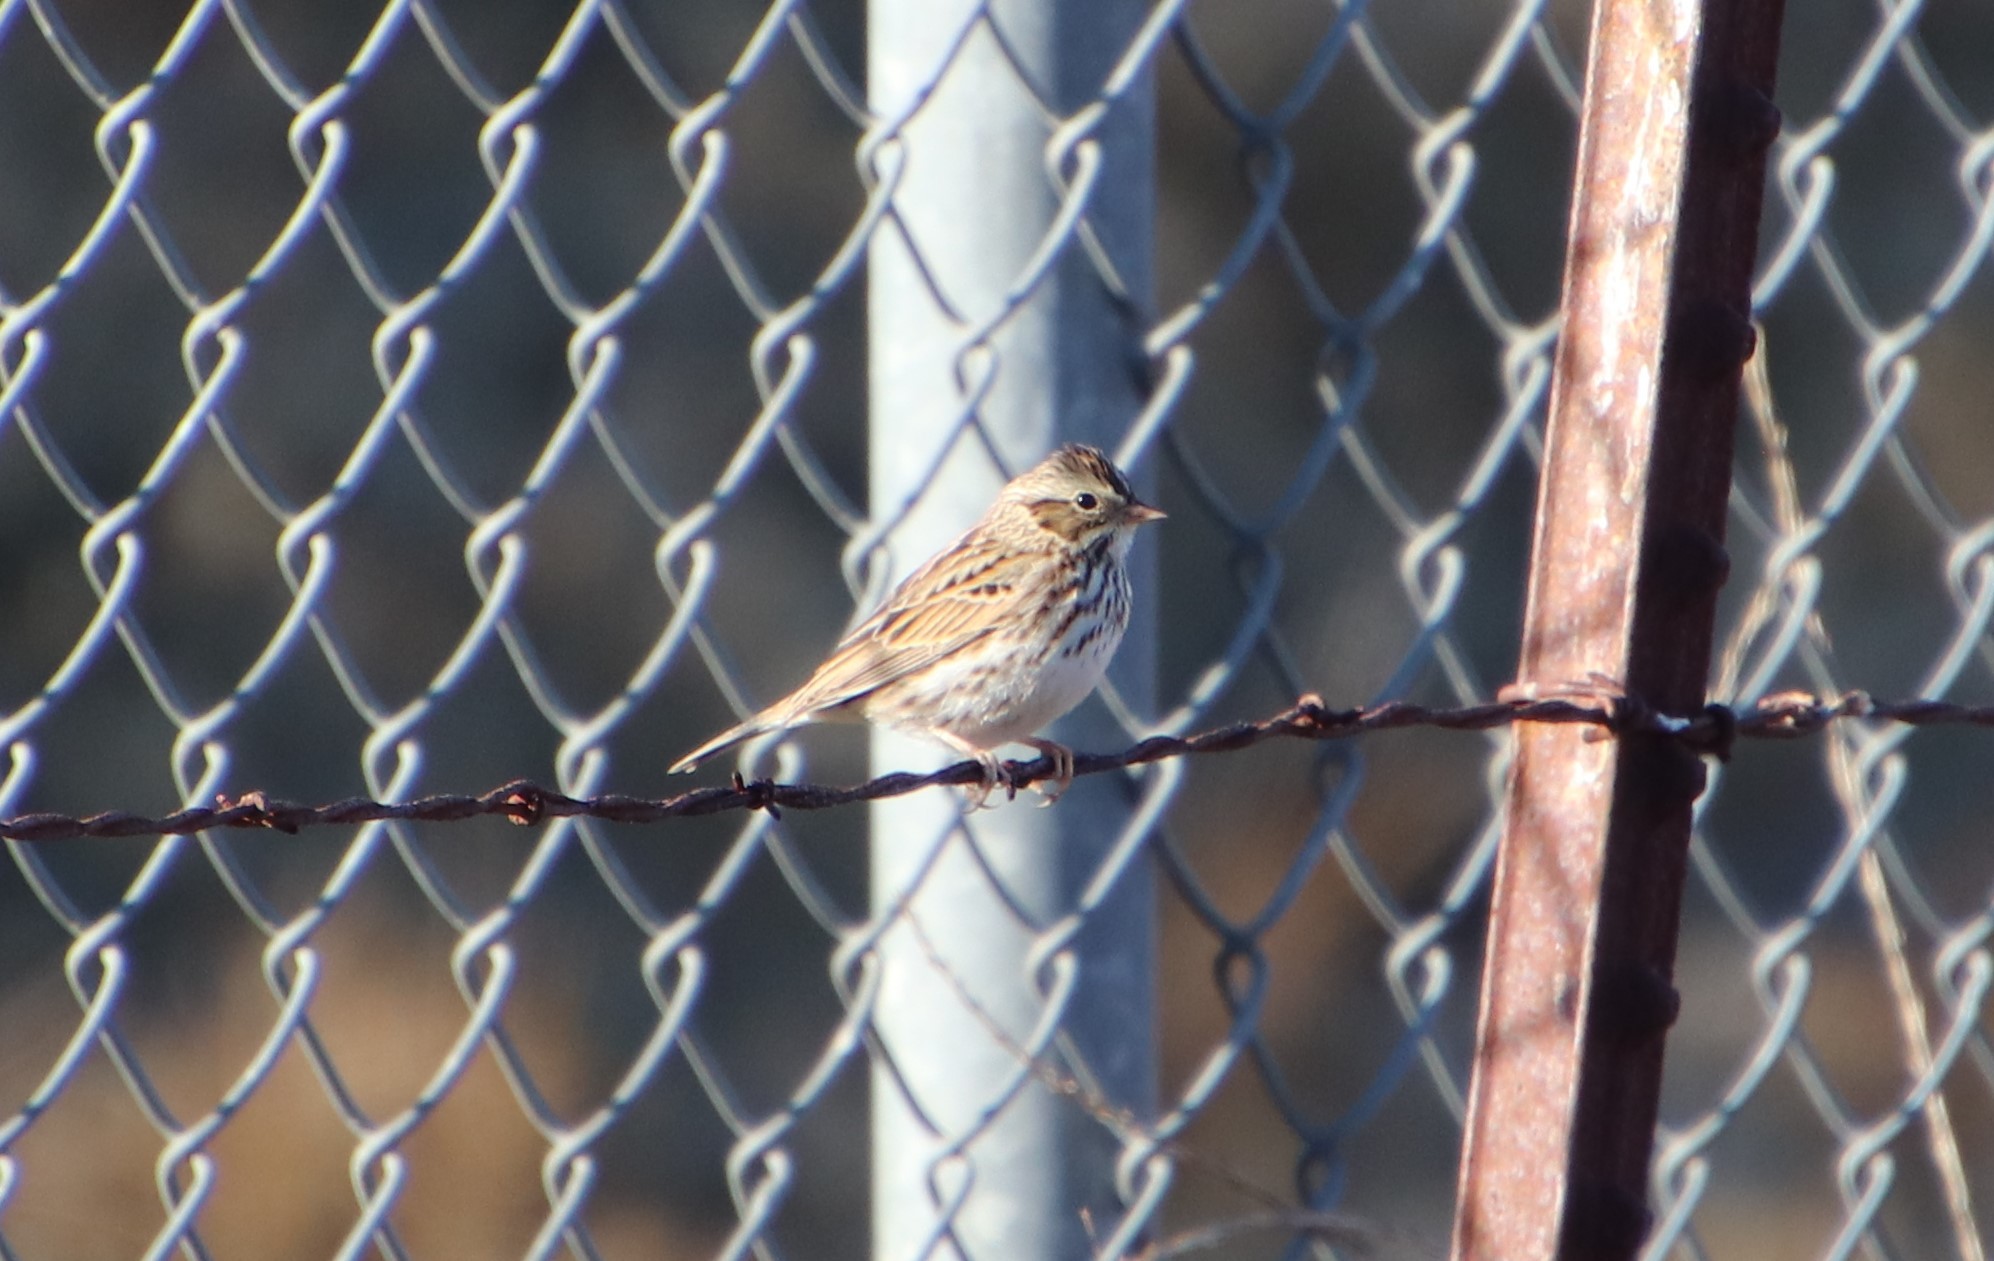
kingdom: Animalia
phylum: Chordata
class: Aves
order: Passeriformes
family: Passerellidae
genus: Passerculus
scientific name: Passerculus sandwichensis
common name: Savannah sparrow
